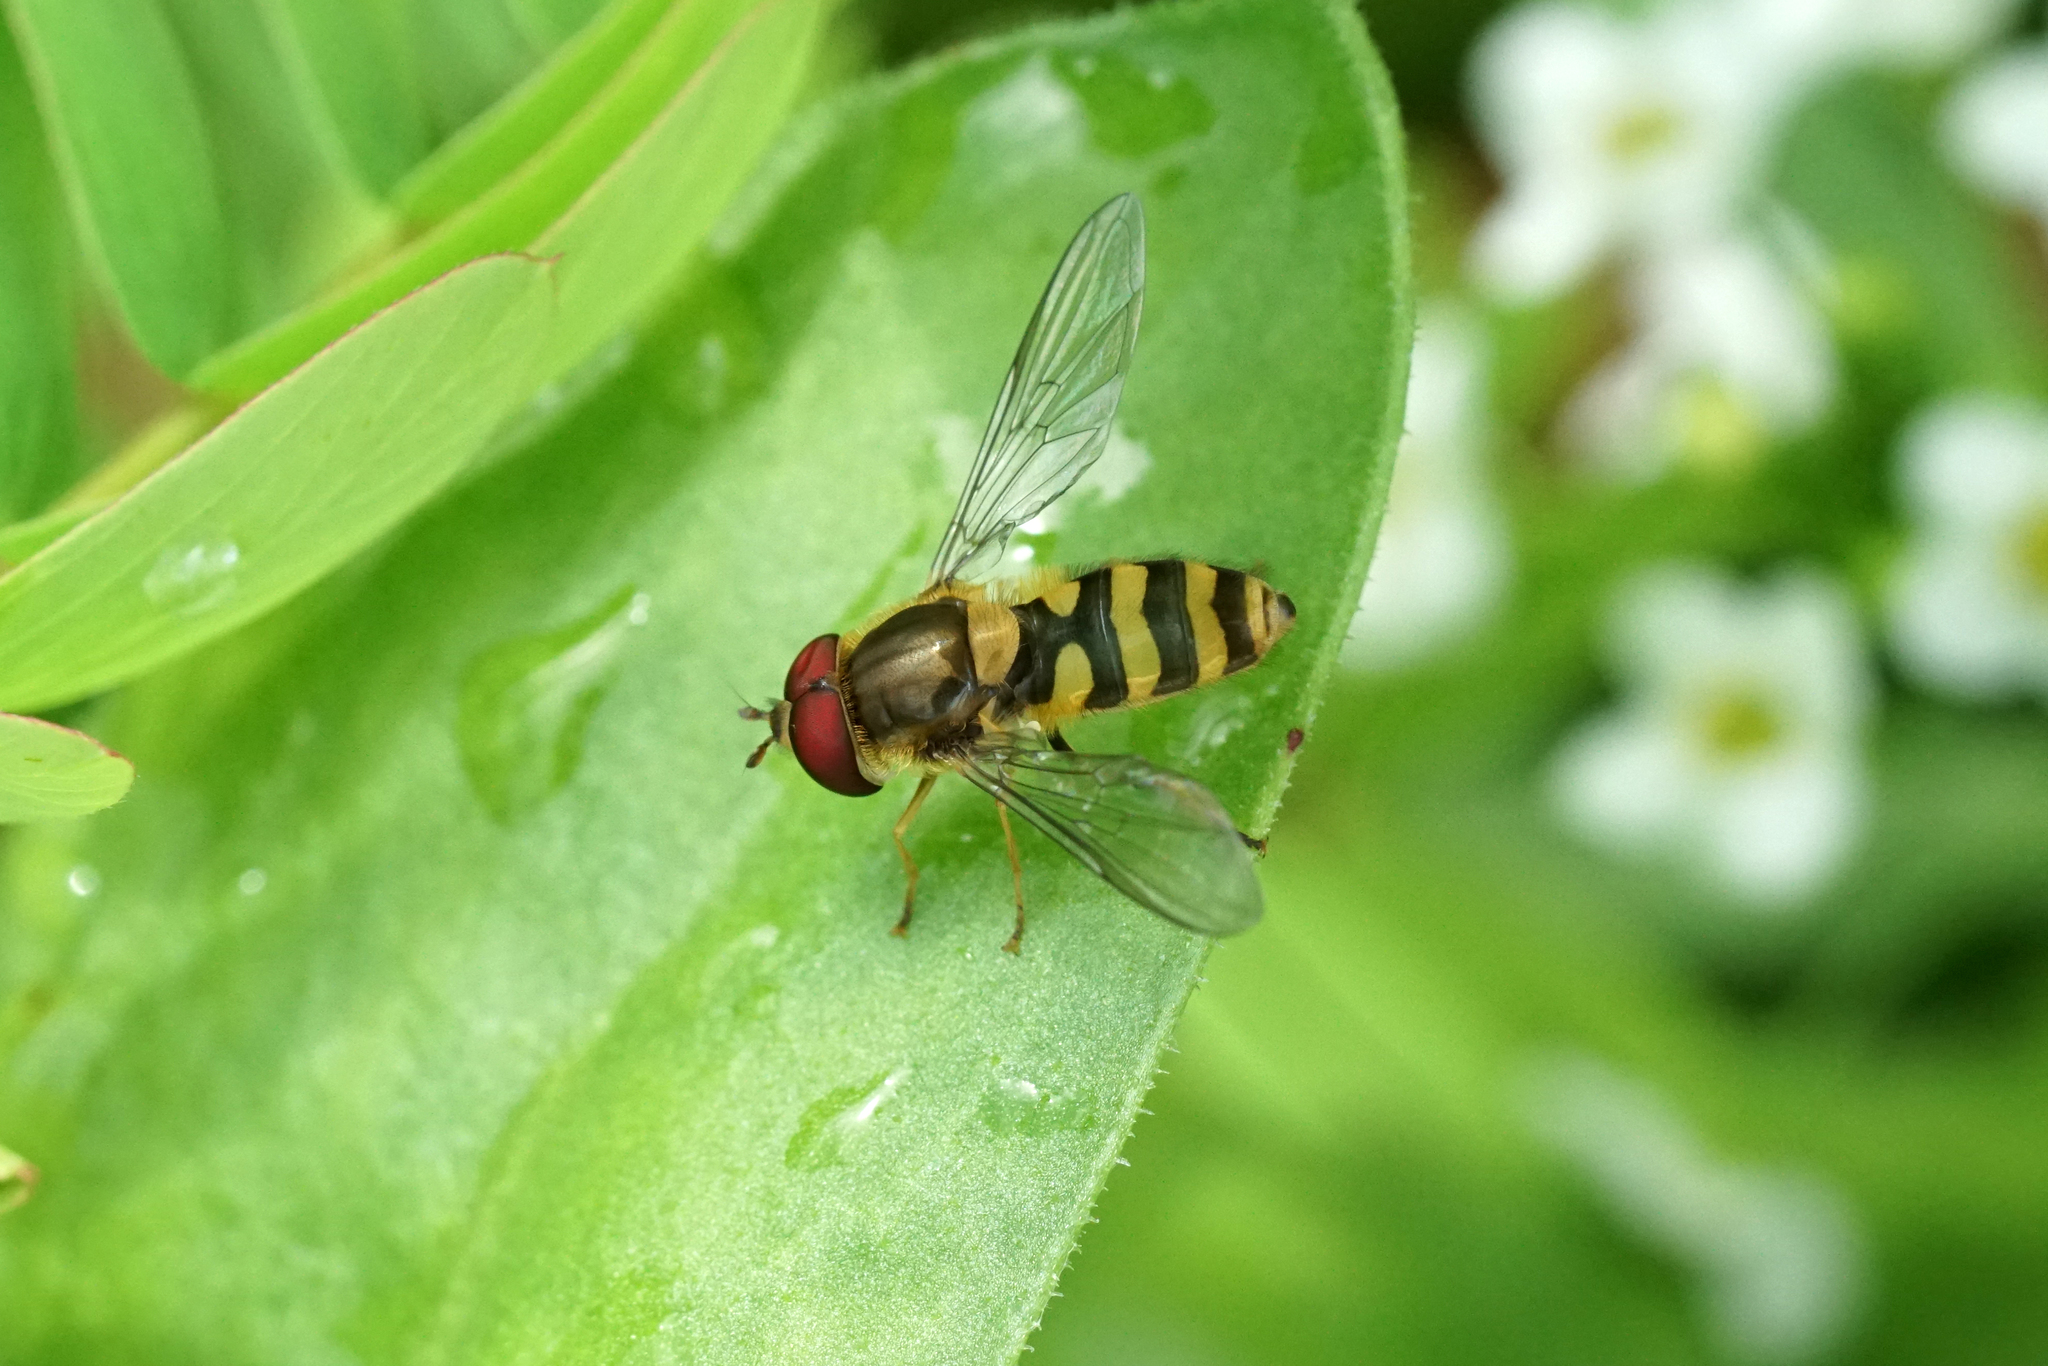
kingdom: Animalia
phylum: Arthropoda
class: Insecta
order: Diptera
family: Syrphidae
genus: Syrphus
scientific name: Syrphus
